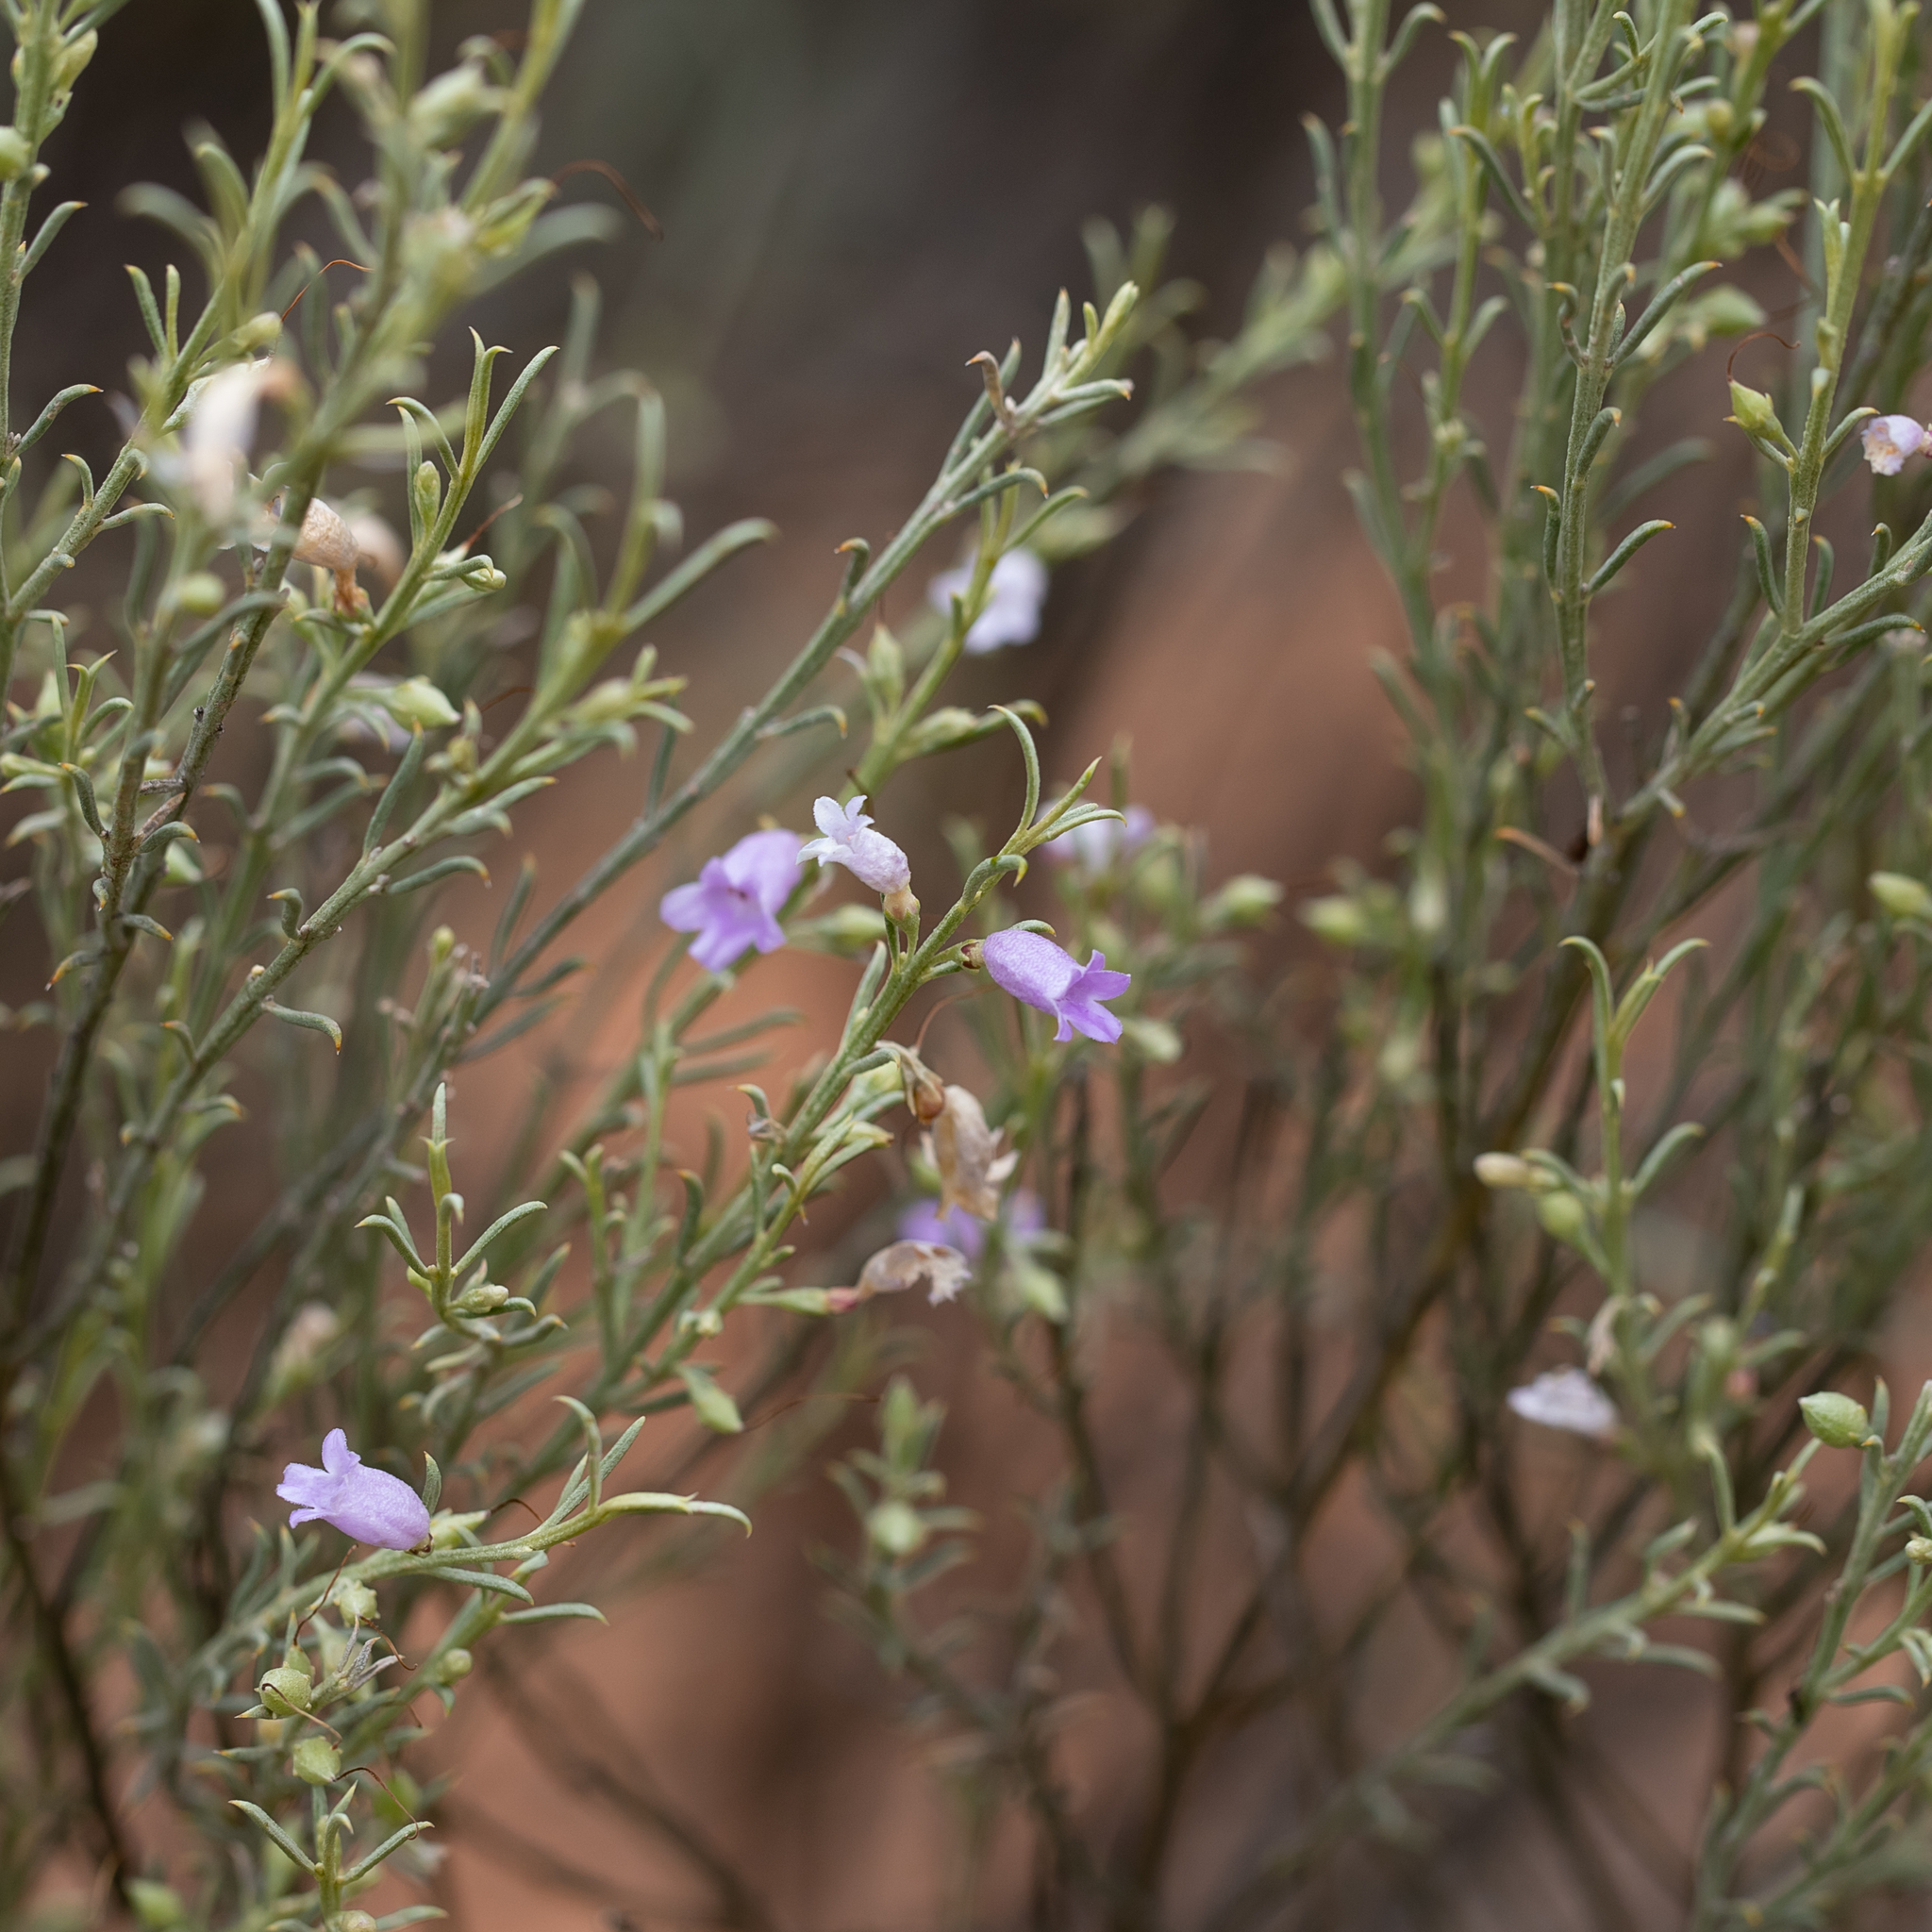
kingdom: Plantae
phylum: Tracheophyta
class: Magnoliopsida
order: Lamiales
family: Scrophulariaceae
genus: Eremophila
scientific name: Eremophila scoparia
